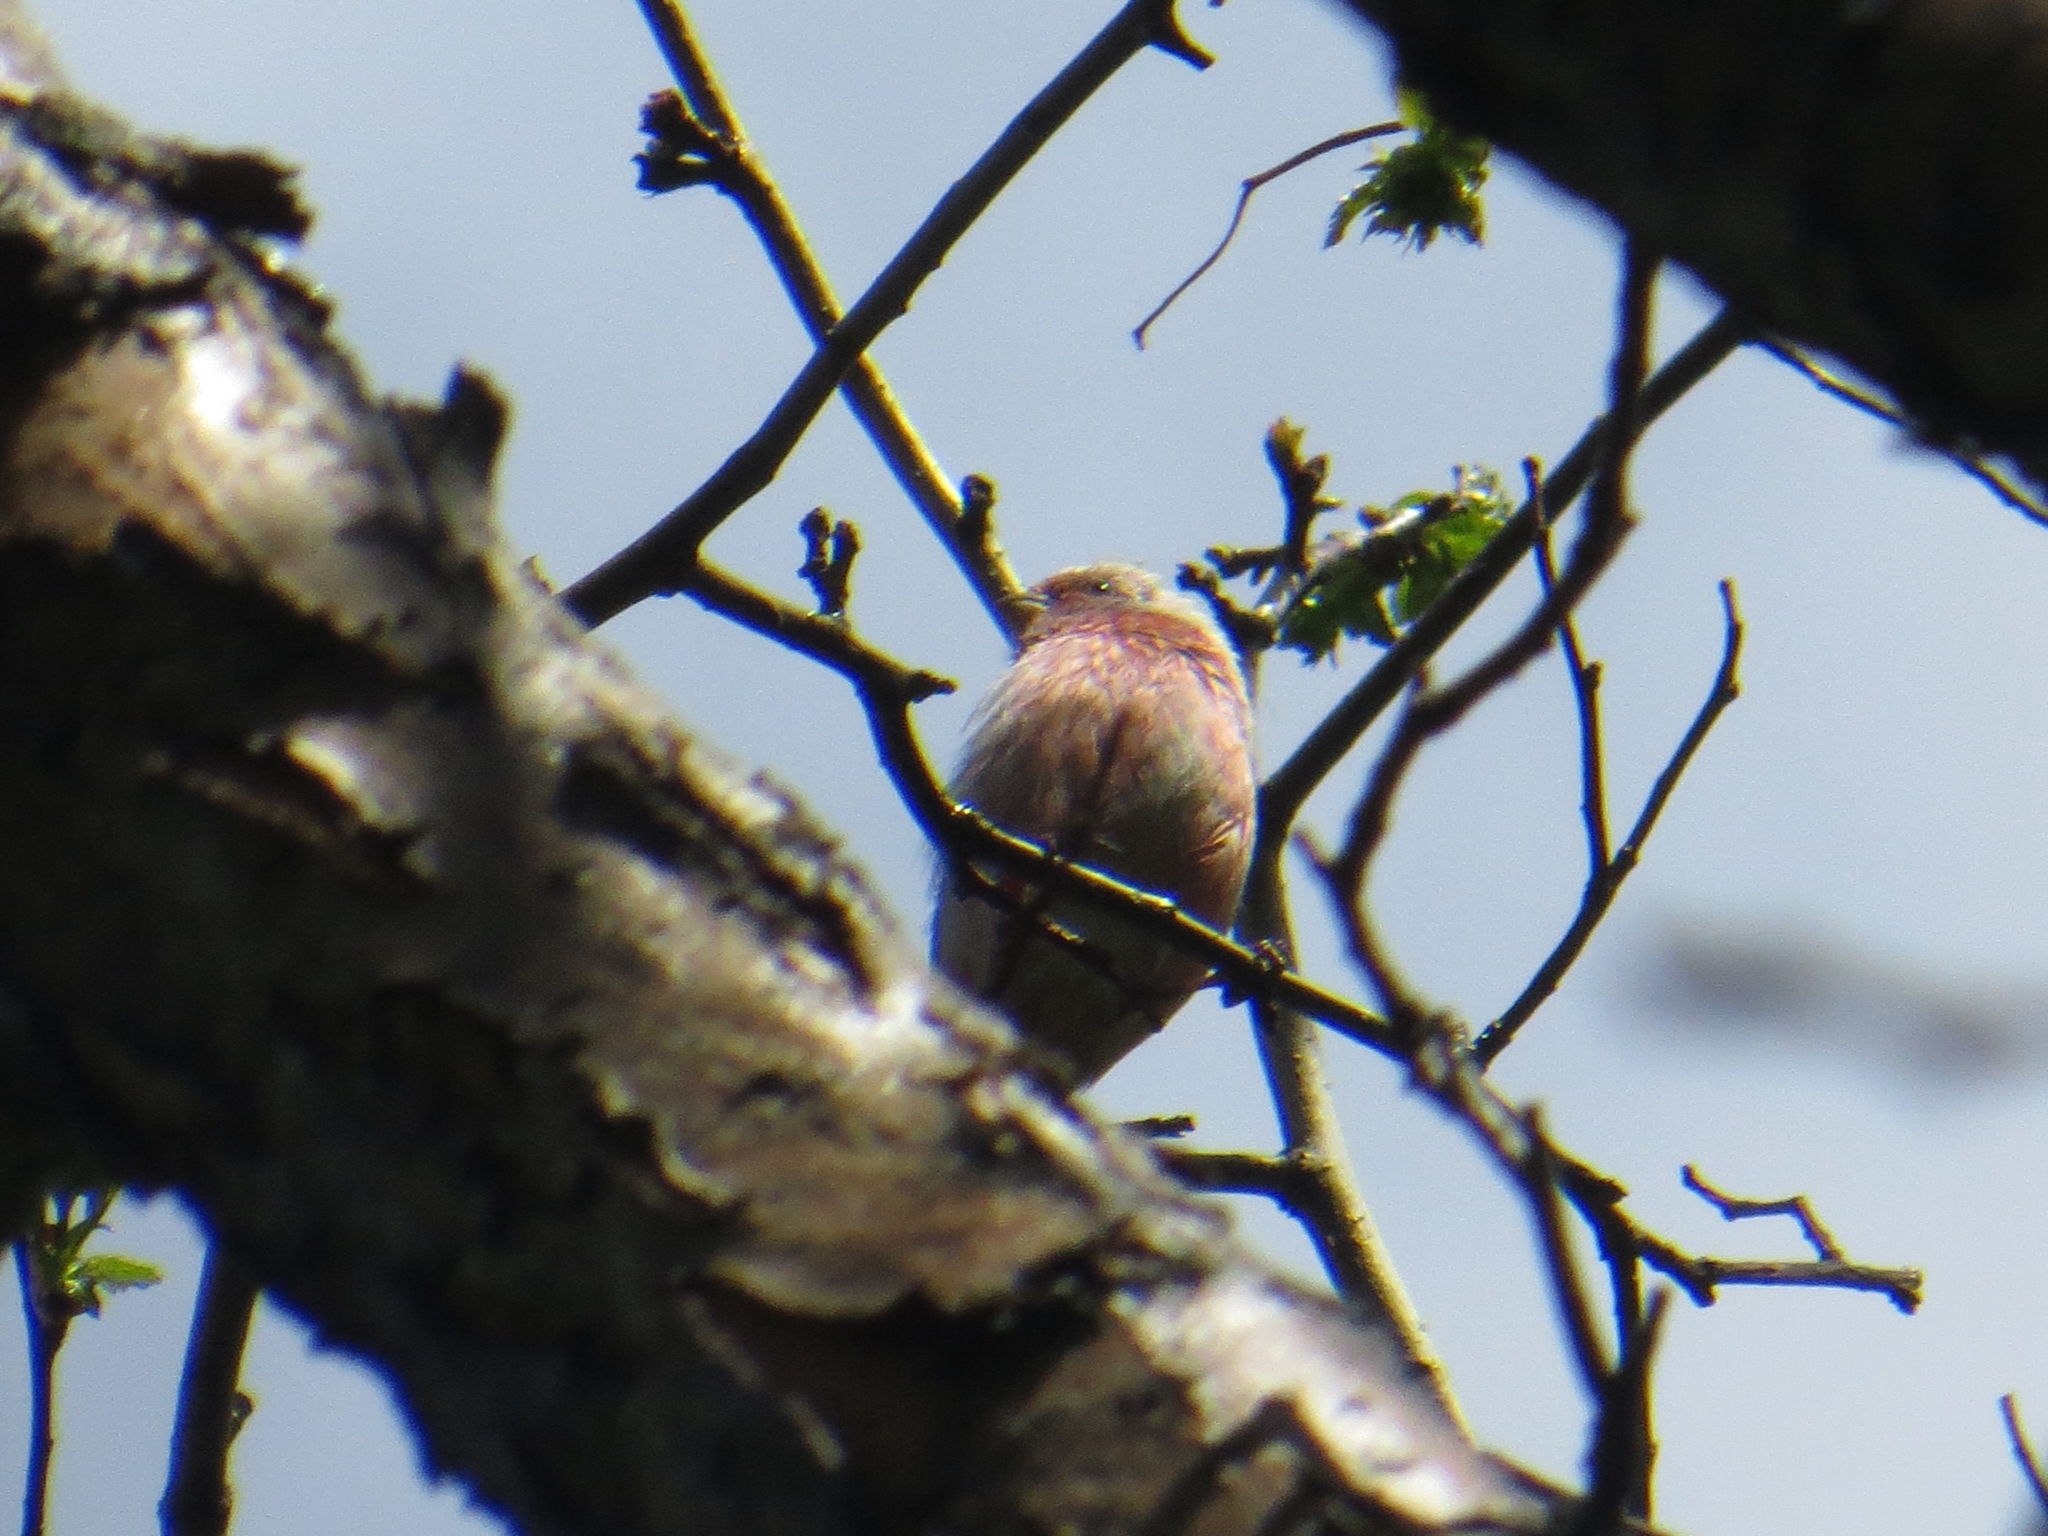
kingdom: Animalia
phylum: Chordata
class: Aves
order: Passeriformes
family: Fringillidae
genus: Carpodacus
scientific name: Carpodacus sibiricus
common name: Long-tailed rosefinch
